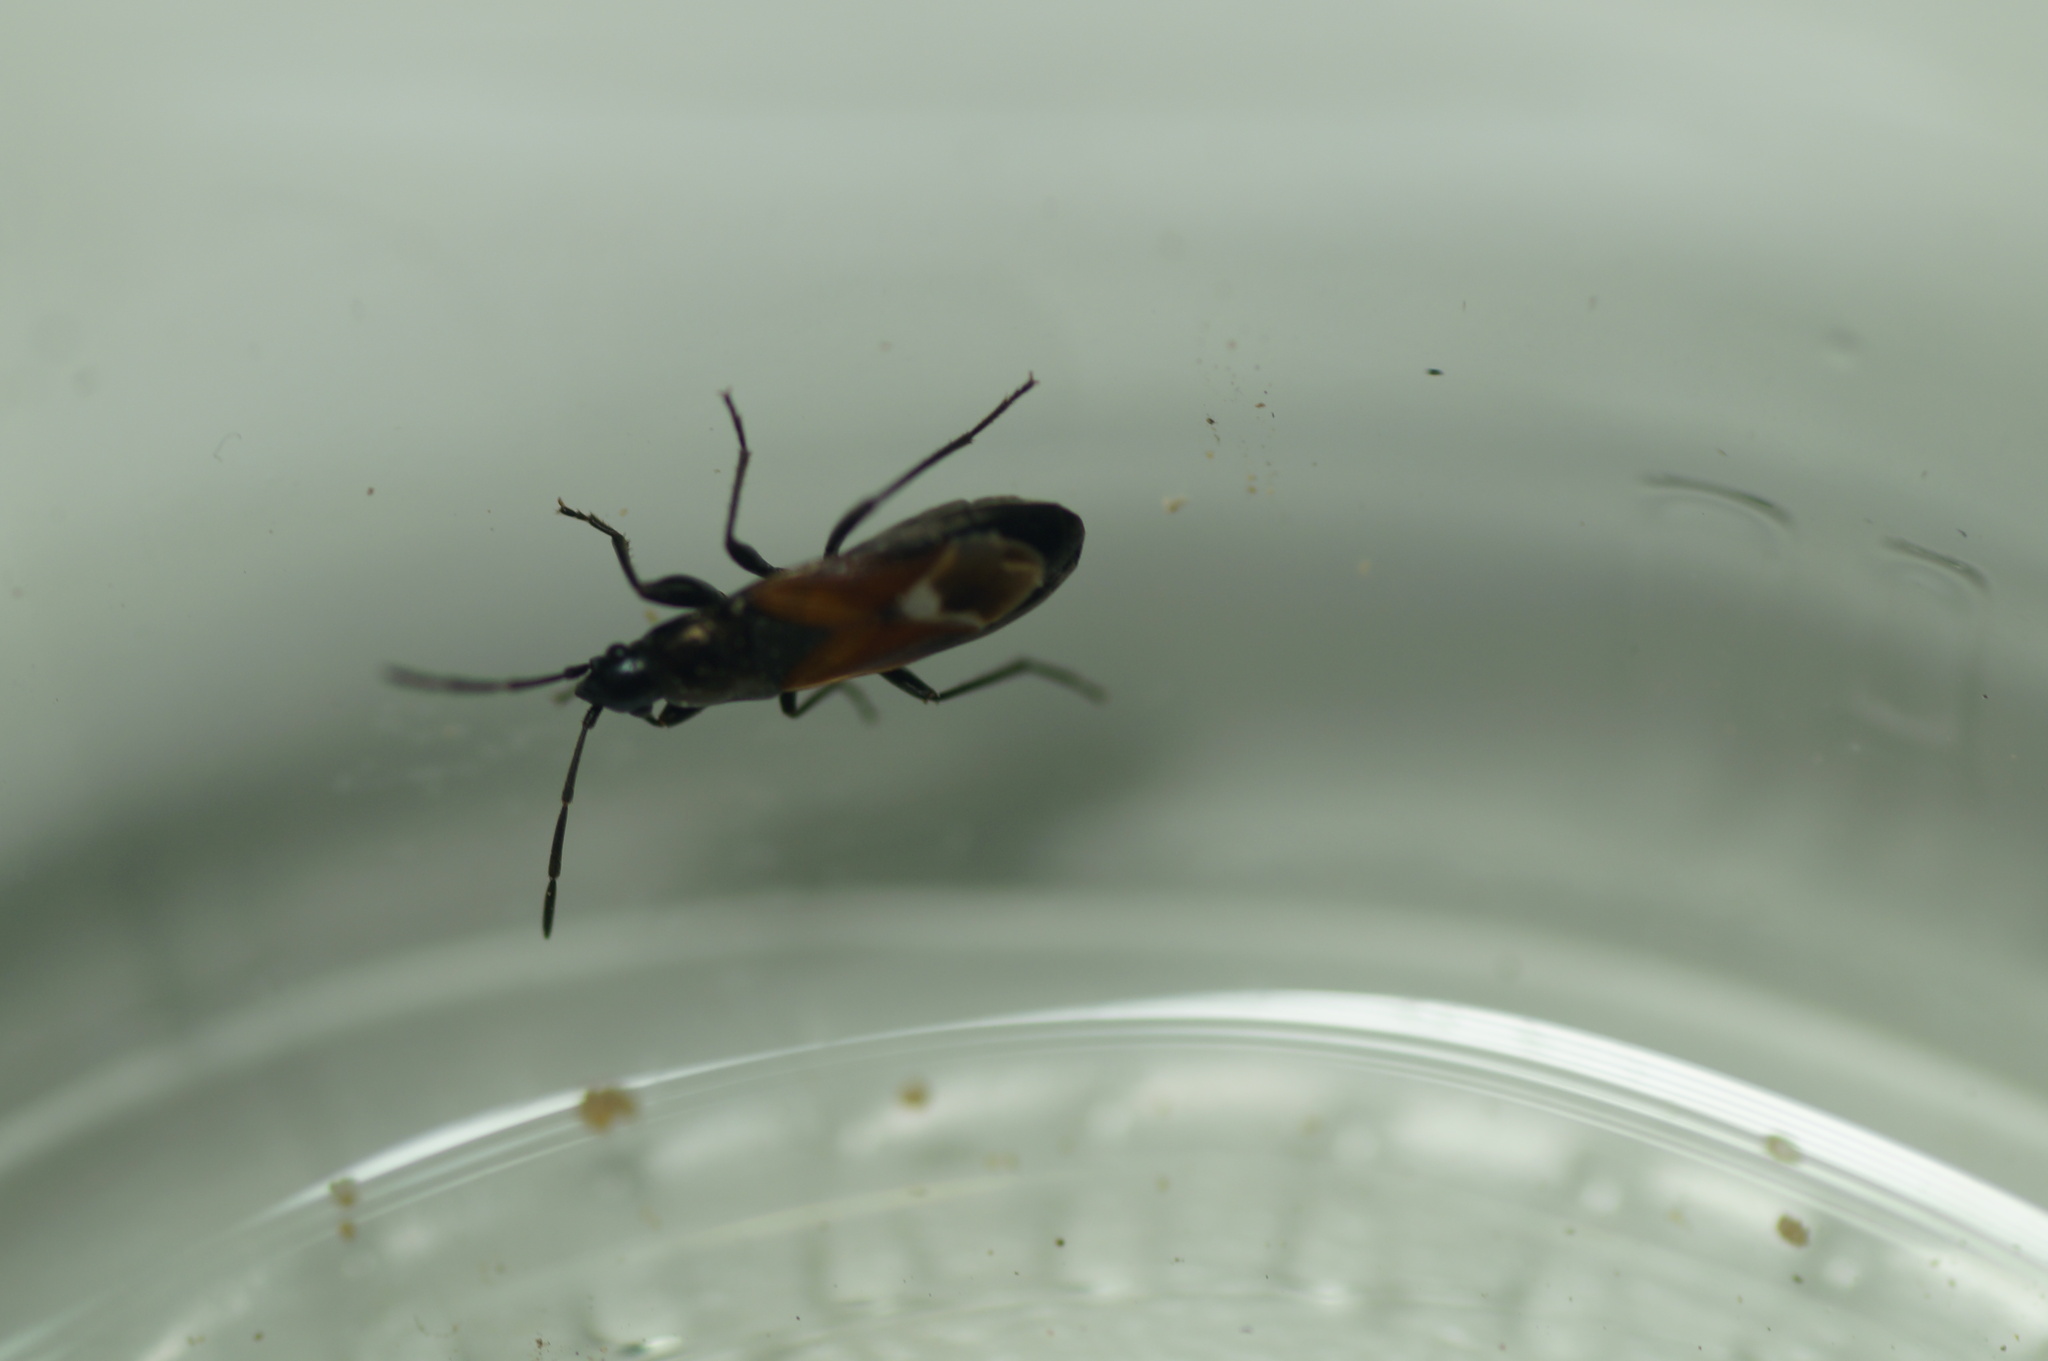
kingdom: Animalia
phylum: Arthropoda
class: Insecta
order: Hemiptera
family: Rhyparochromidae
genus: Pterotmetus
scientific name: Pterotmetus staphyliniformis
